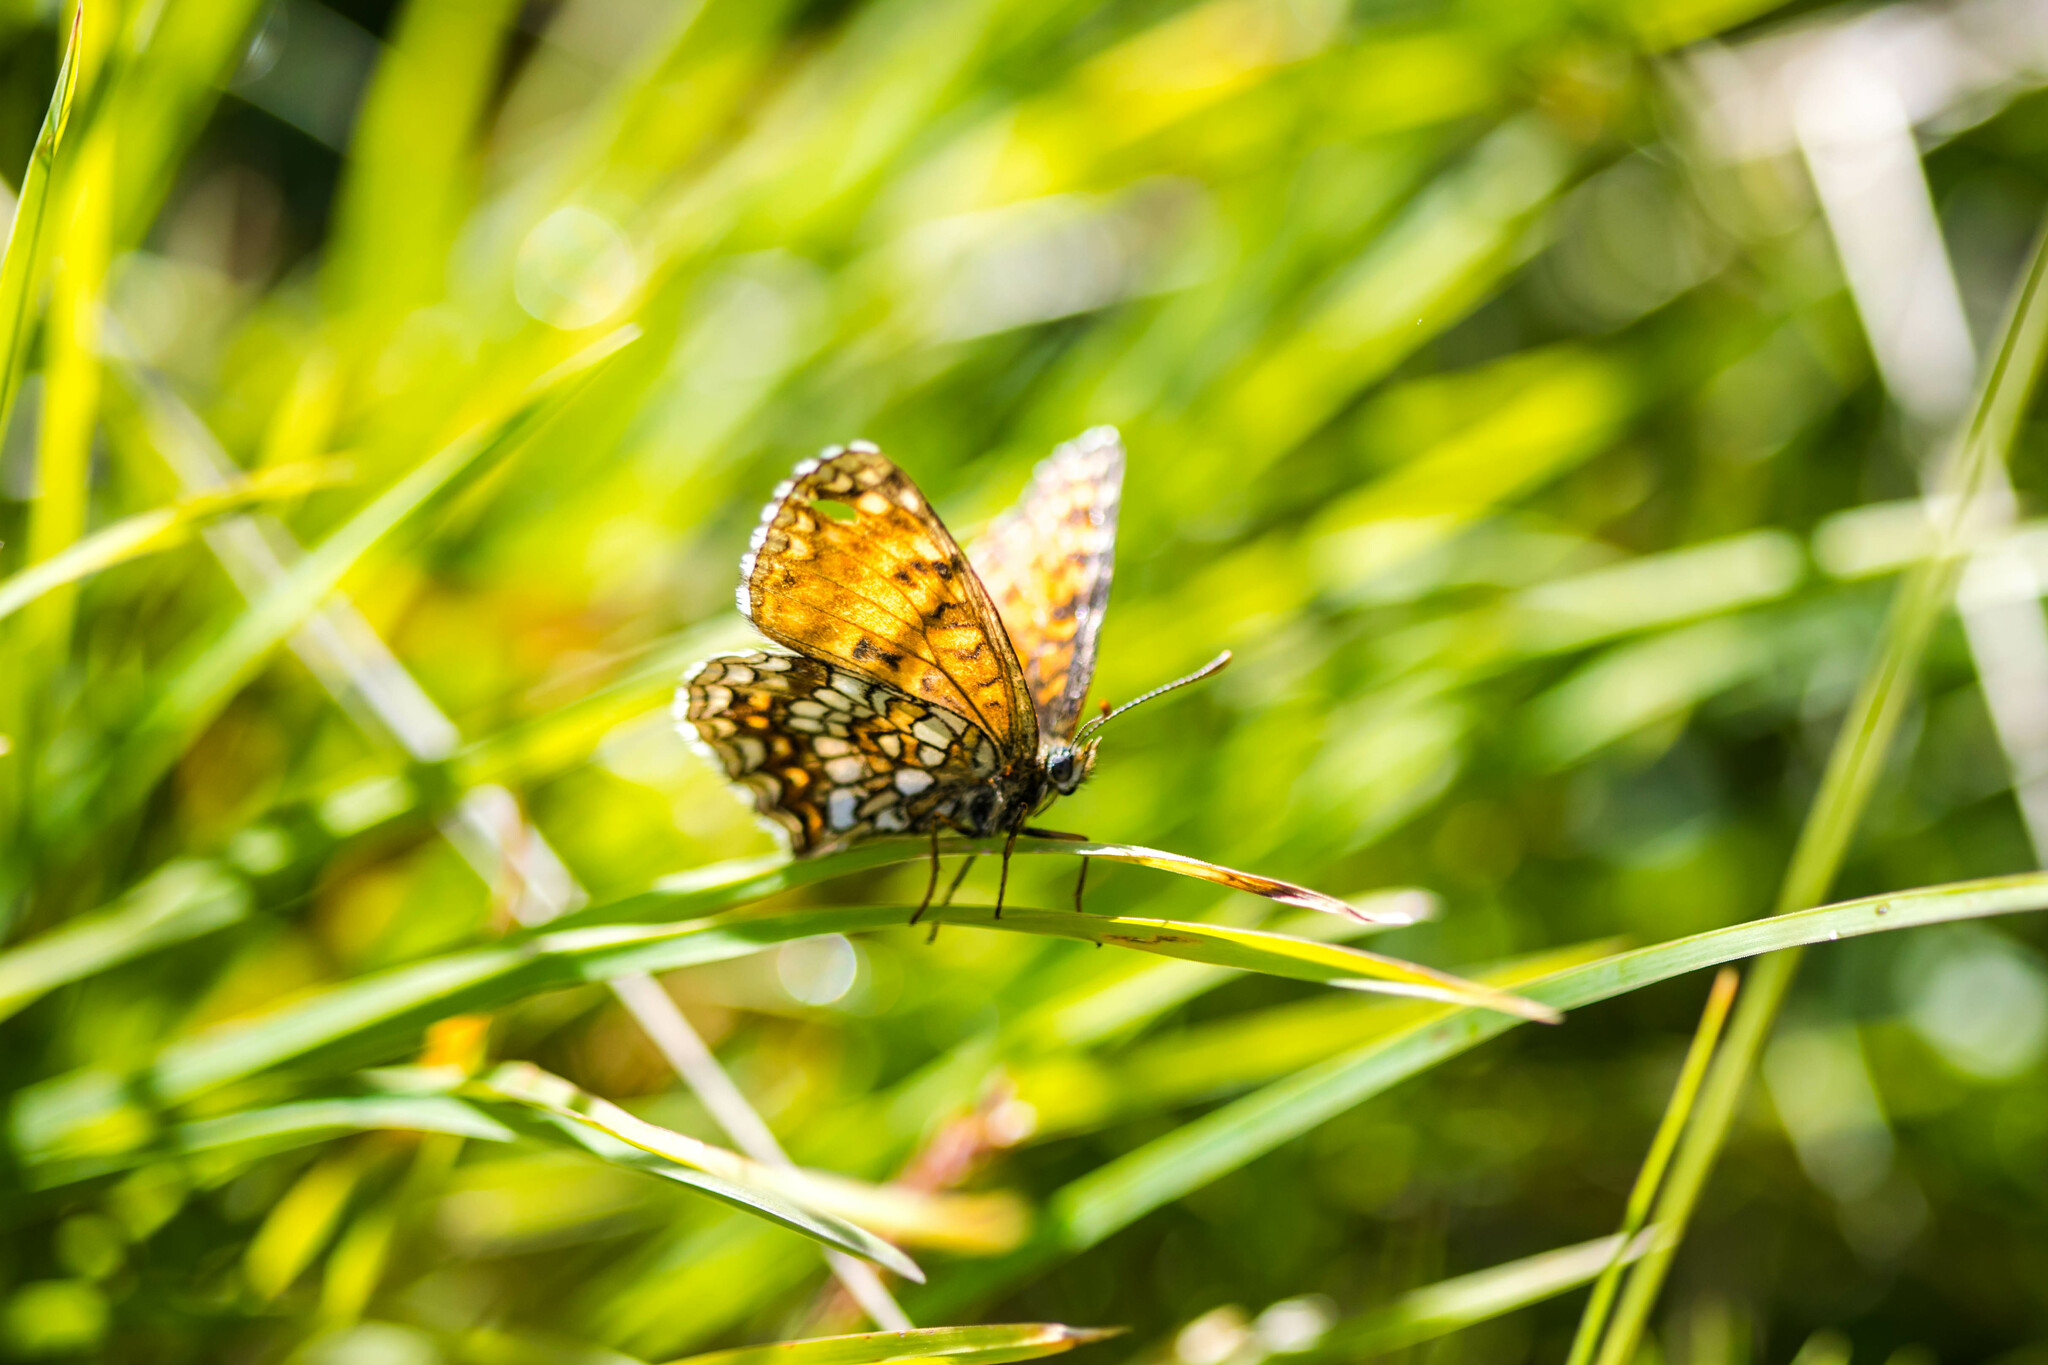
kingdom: Animalia
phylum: Arthropoda
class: Insecta
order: Lepidoptera
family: Nymphalidae
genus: Melitaea
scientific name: Melitaea diamina
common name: False heath fritillary
